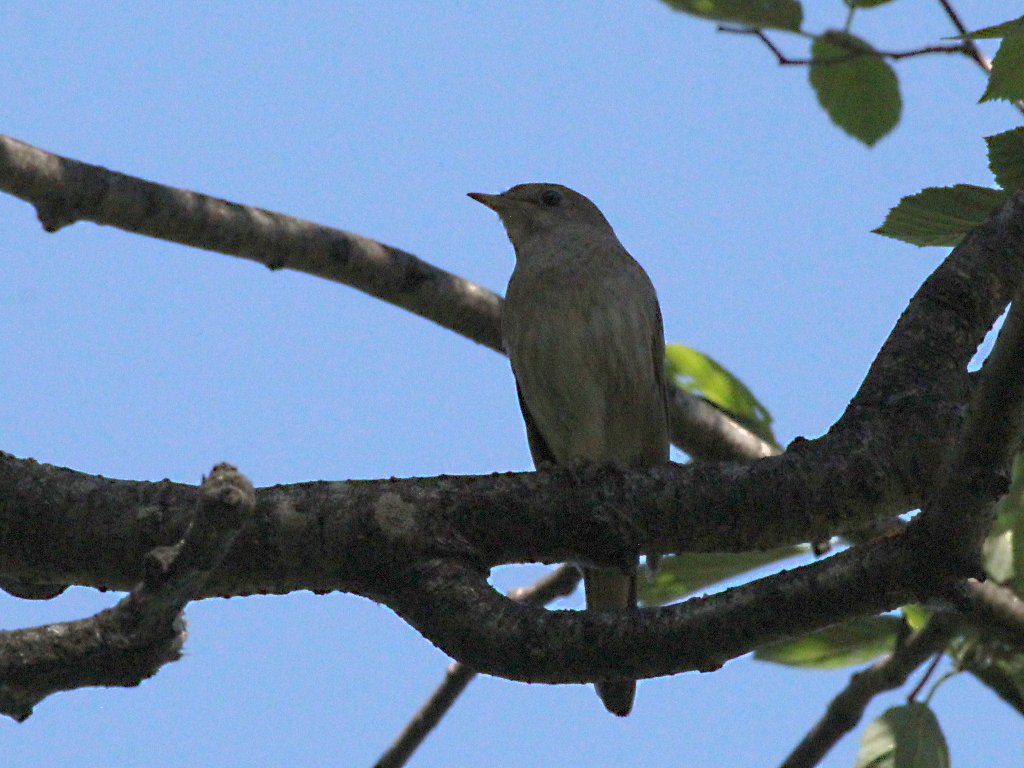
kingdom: Animalia
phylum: Chordata
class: Aves
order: Passeriformes
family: Muscicapidae
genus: Luscinia
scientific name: Luscinia luscinia
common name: Thrush nightingale
